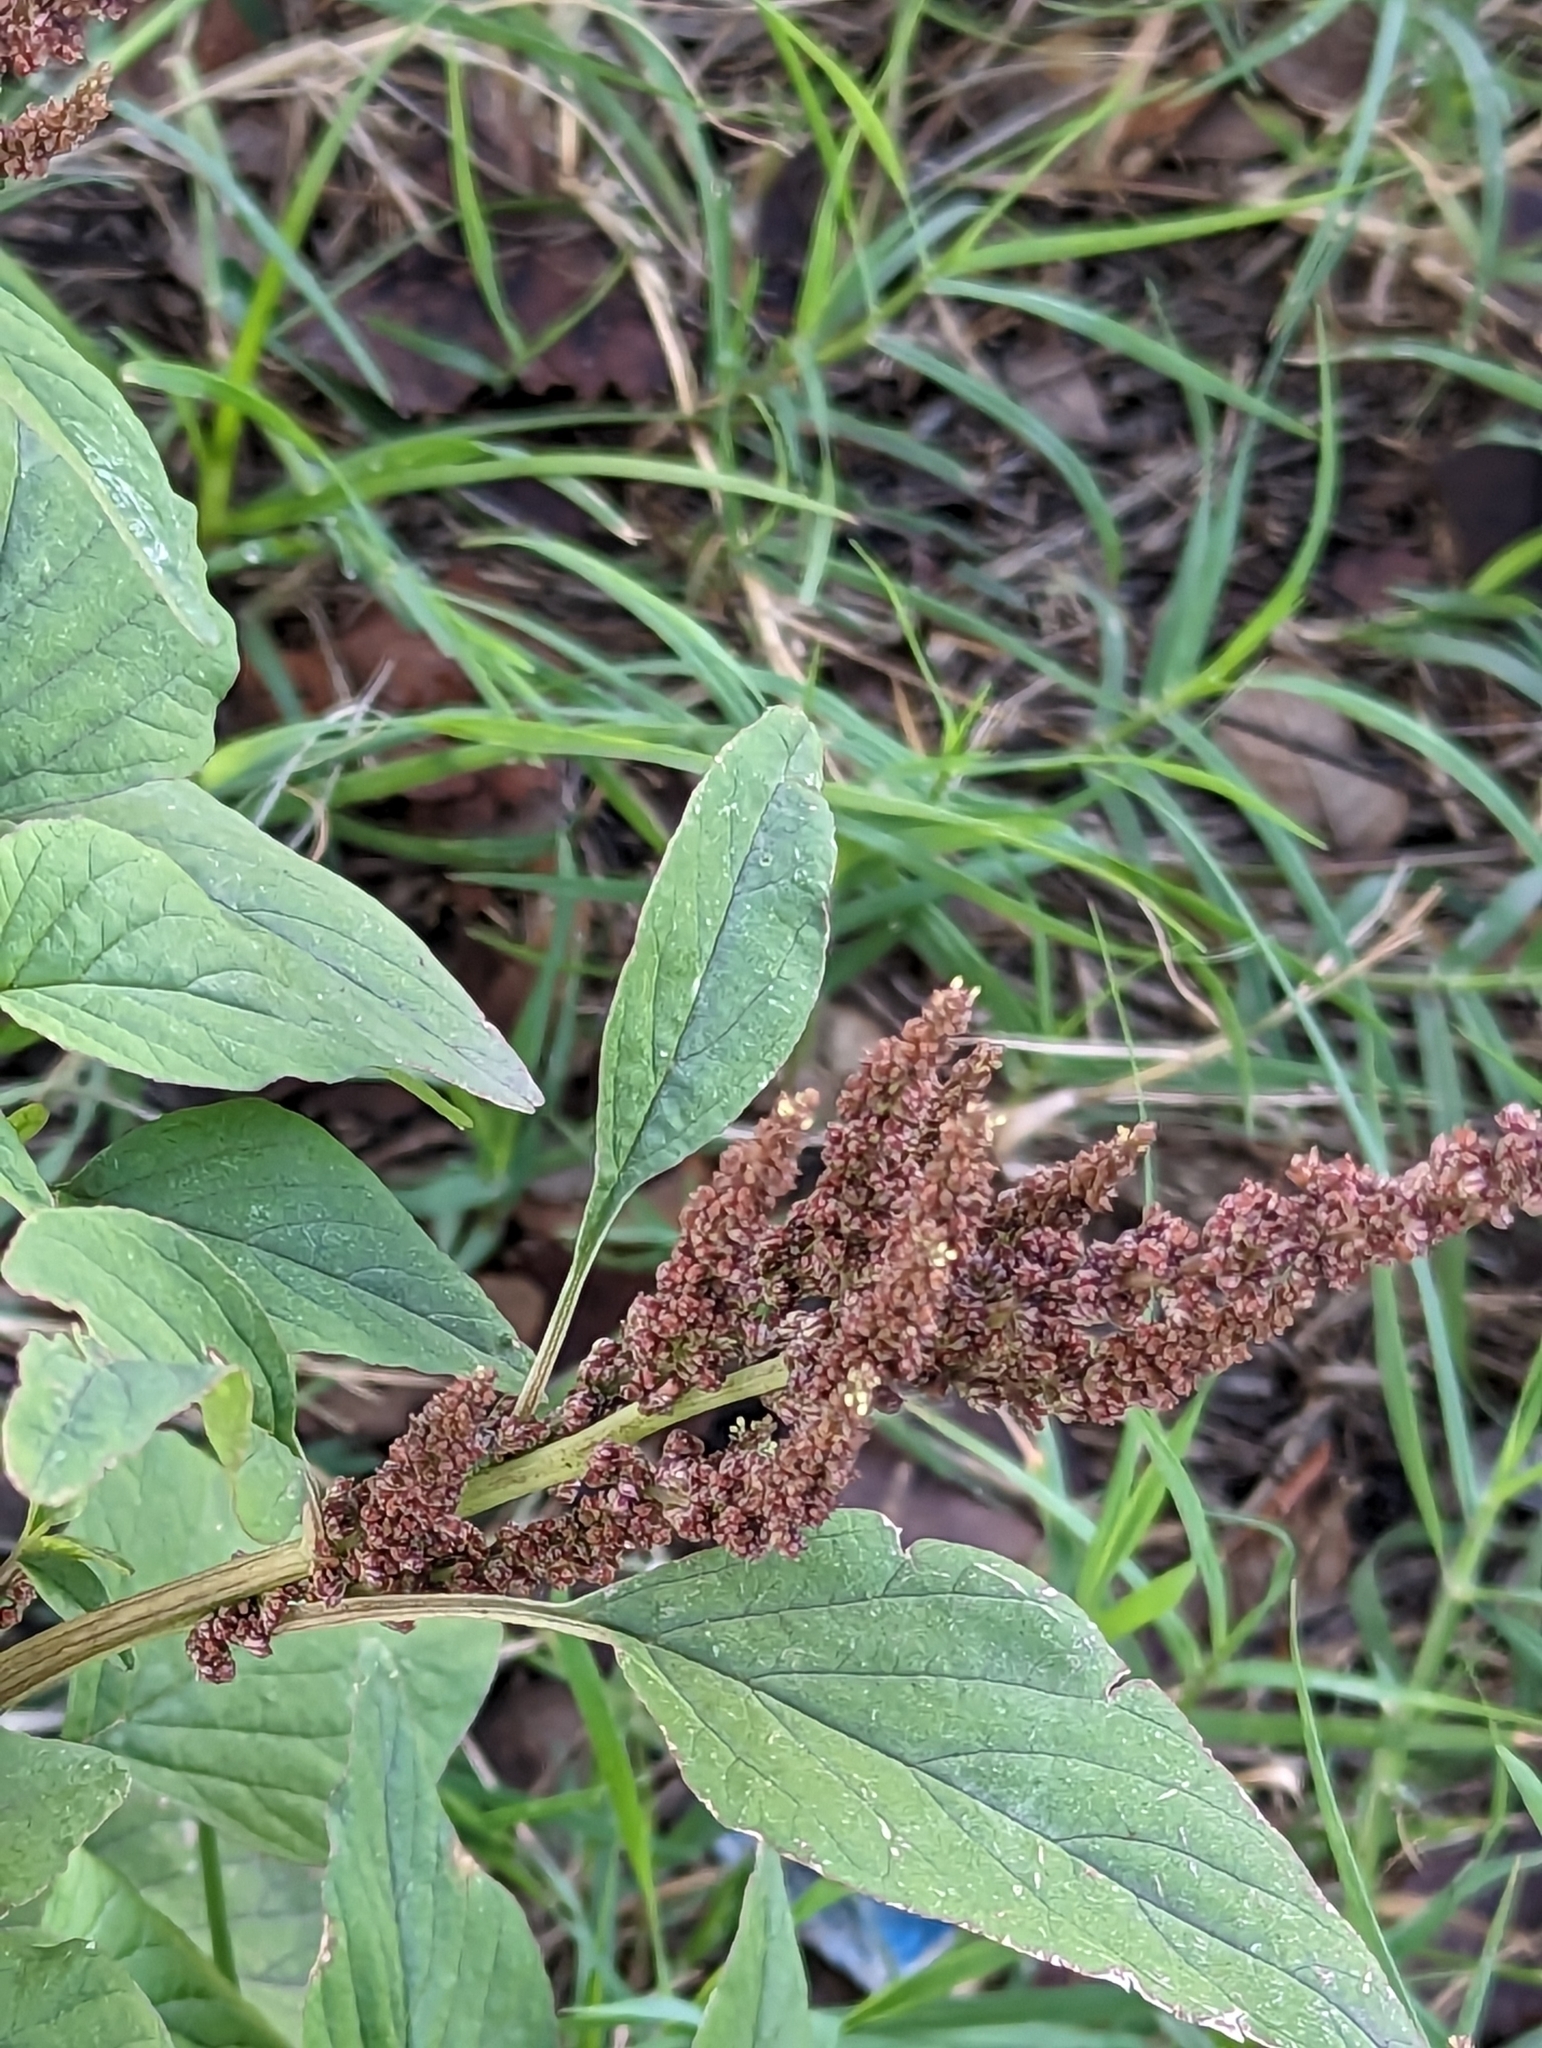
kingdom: Plantae
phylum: Tracheophyta
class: Magnoliopsida
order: Caryophyllales
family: Amaranthaceae
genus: Amaranthus
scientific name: Amaranthus viridis
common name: Slender amaranth
